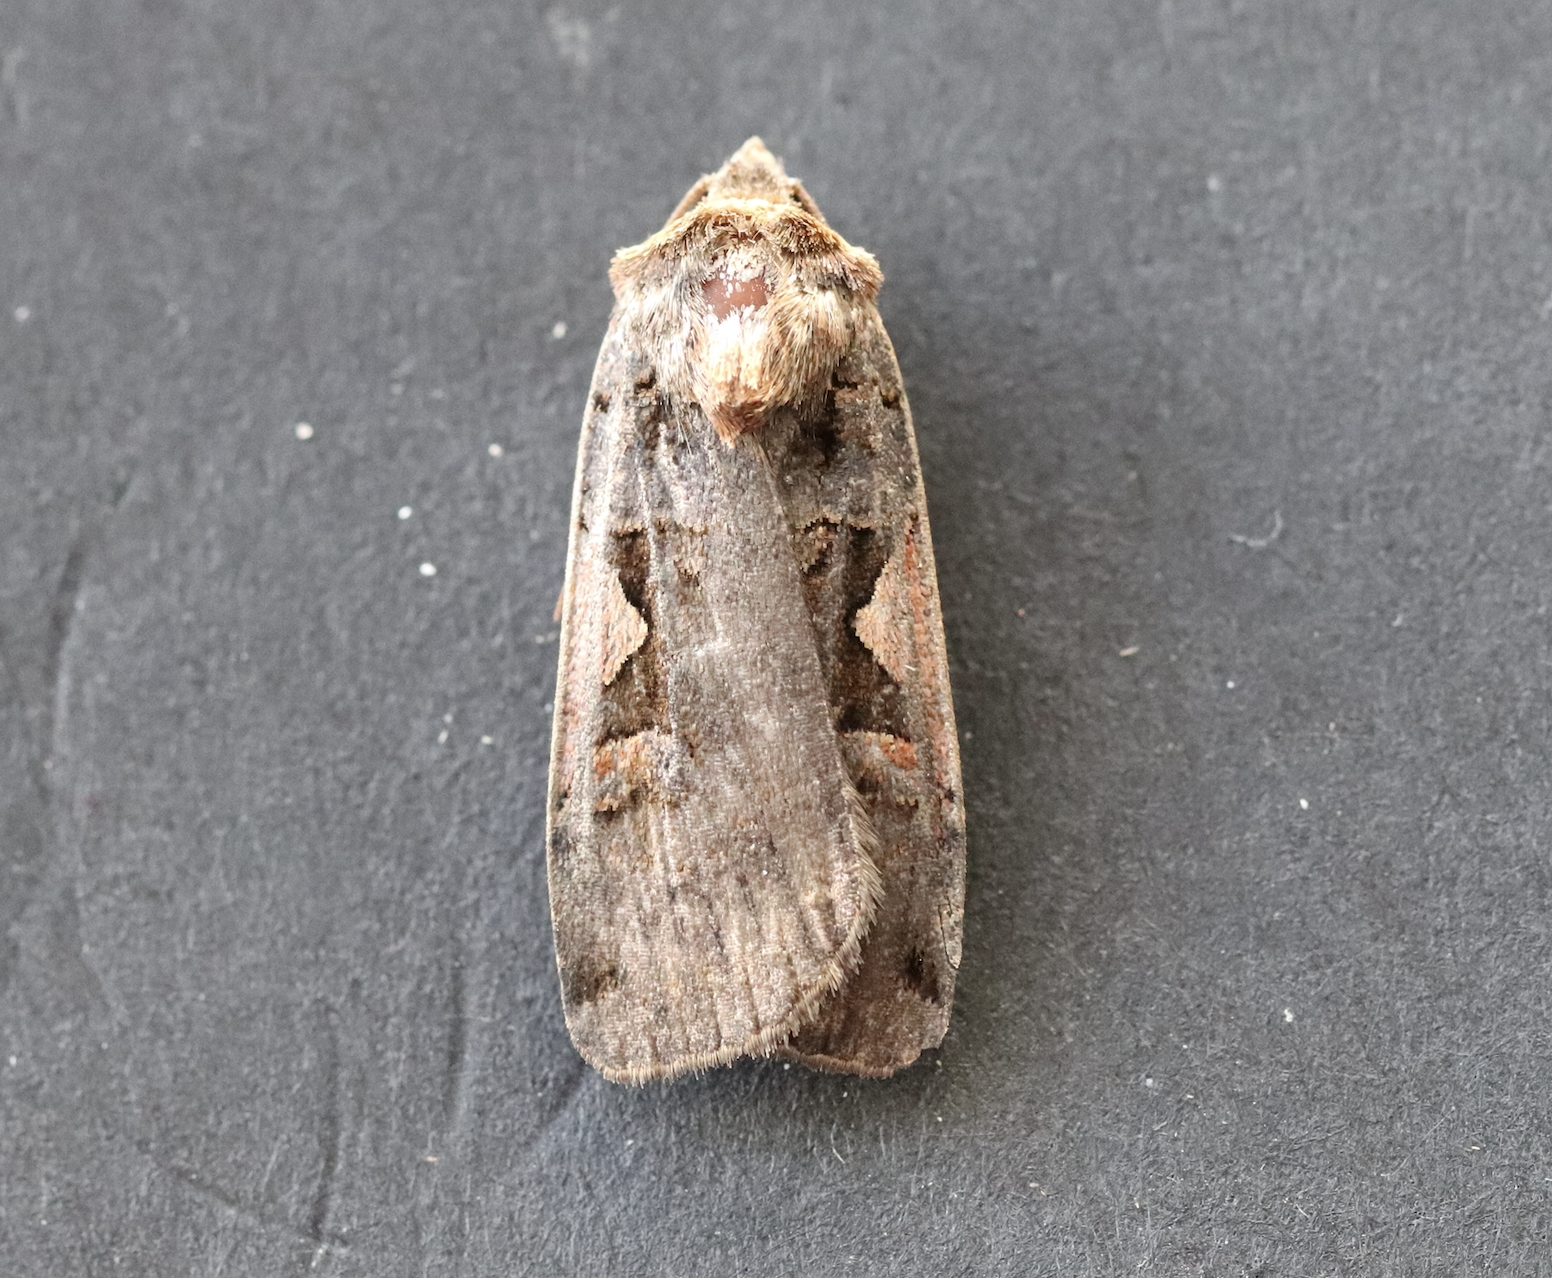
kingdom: Animalia
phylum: Arthropoda
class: Insecta
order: Lepidoptera
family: Noctuidae
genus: Xestia
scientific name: Xestia c-nigrum
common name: Setaceous hebrew character
